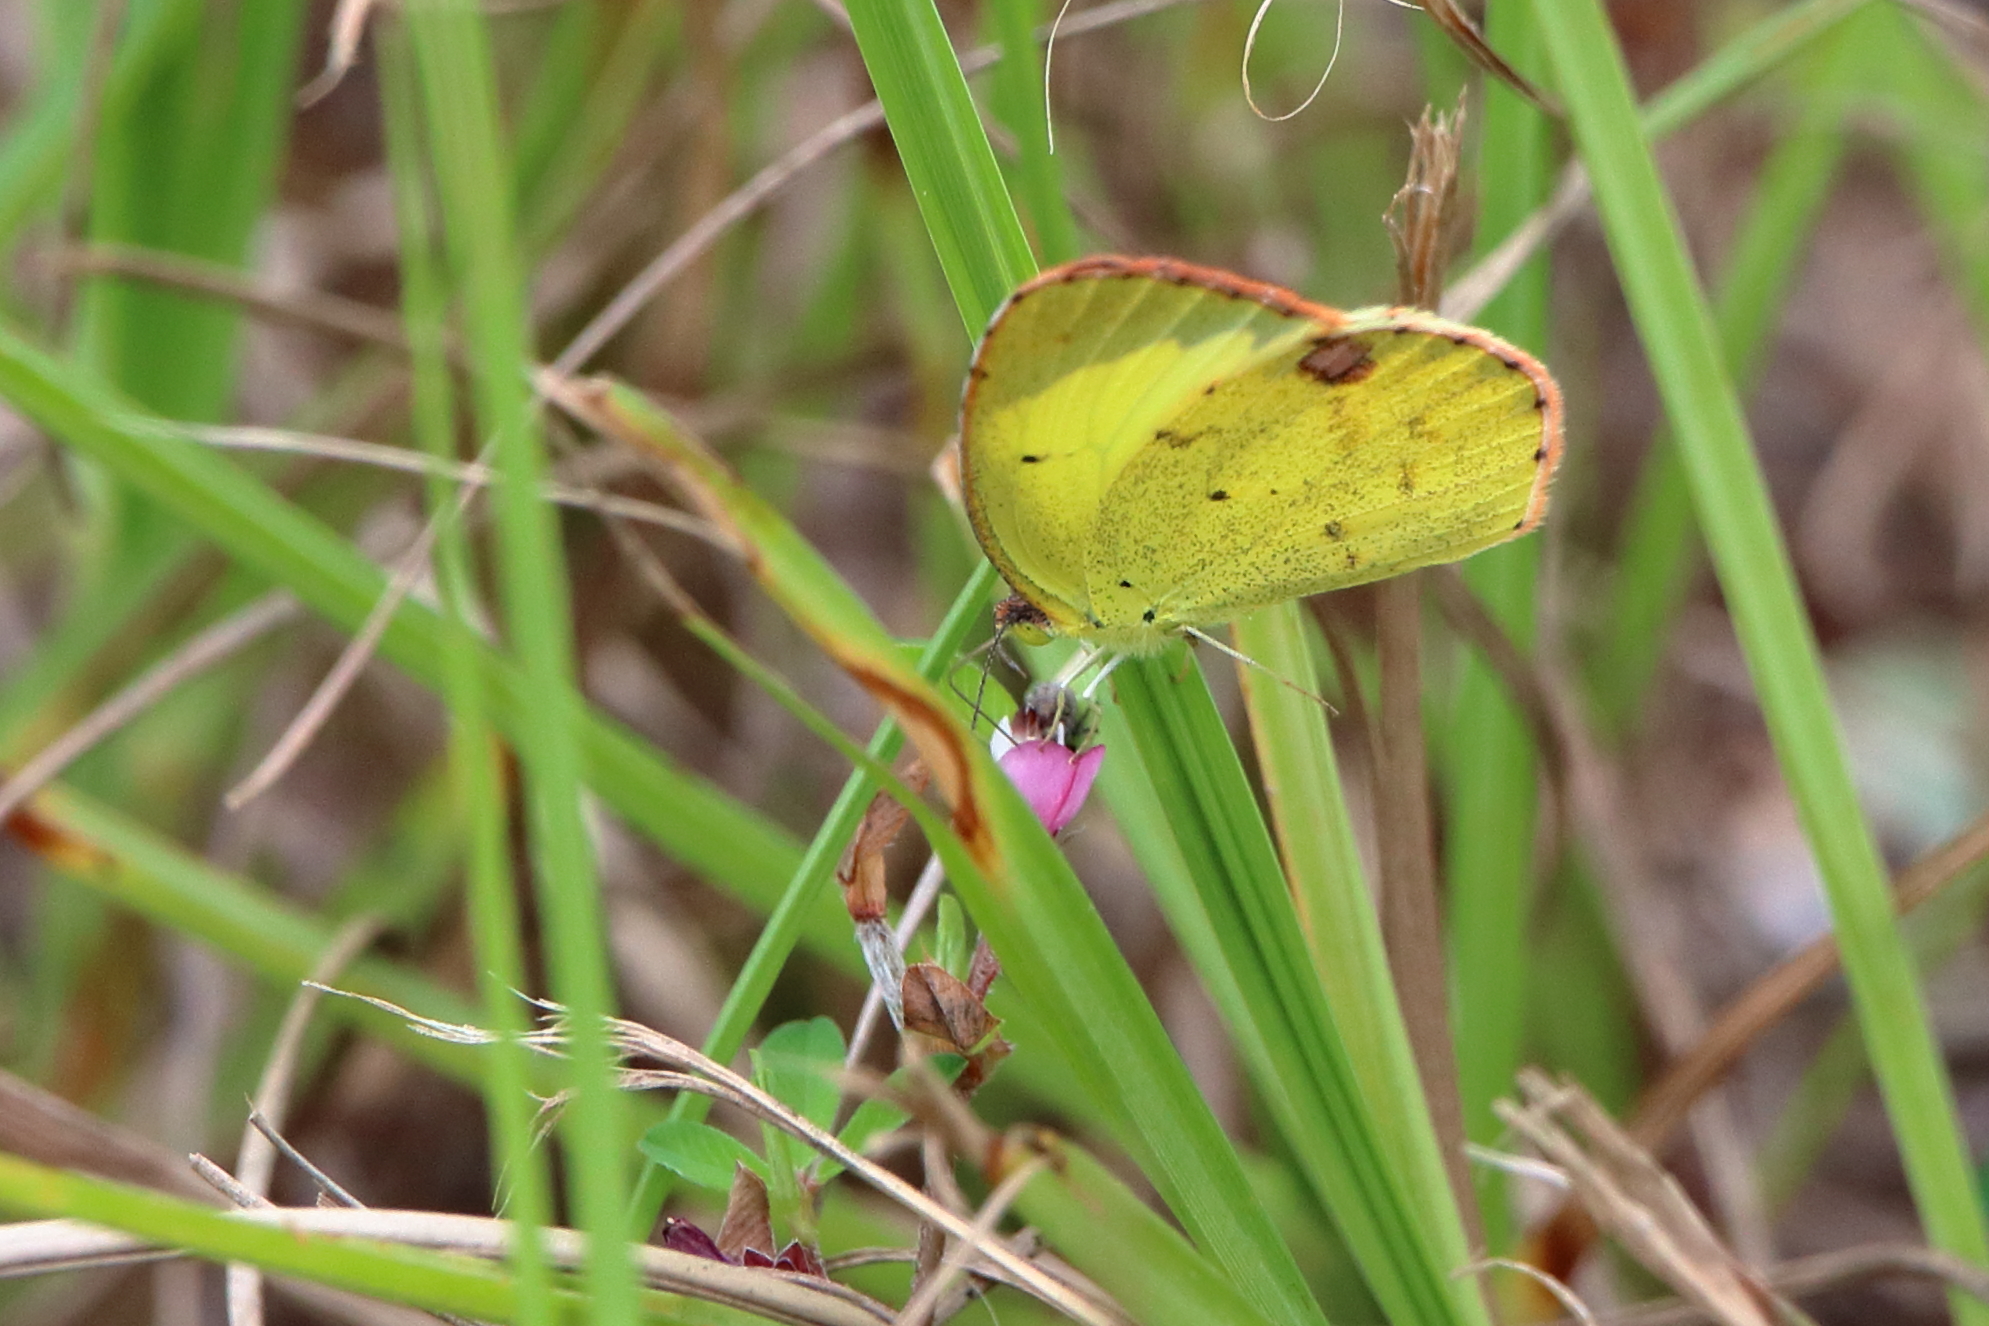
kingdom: Animalia
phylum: Arthropoda
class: Insecta
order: Lepidoptera
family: Pieridae
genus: Pyrisitia
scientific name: Pyrisitia lisa
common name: Little yellow
